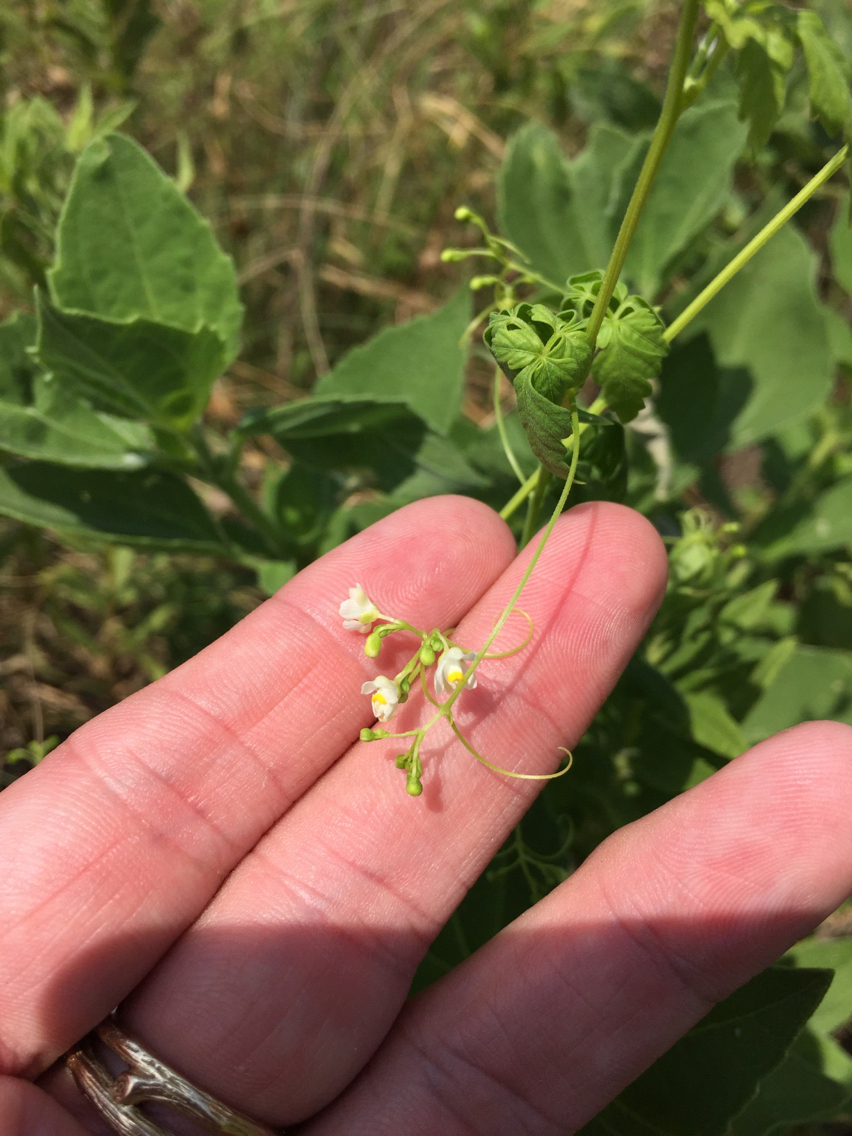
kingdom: Plantae
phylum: Tracheophyta
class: Magnoliopsida
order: Sapindales
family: Sapindaceae
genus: Cardiospermum
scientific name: Cardiospermum halicacabum
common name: Balloon vine
